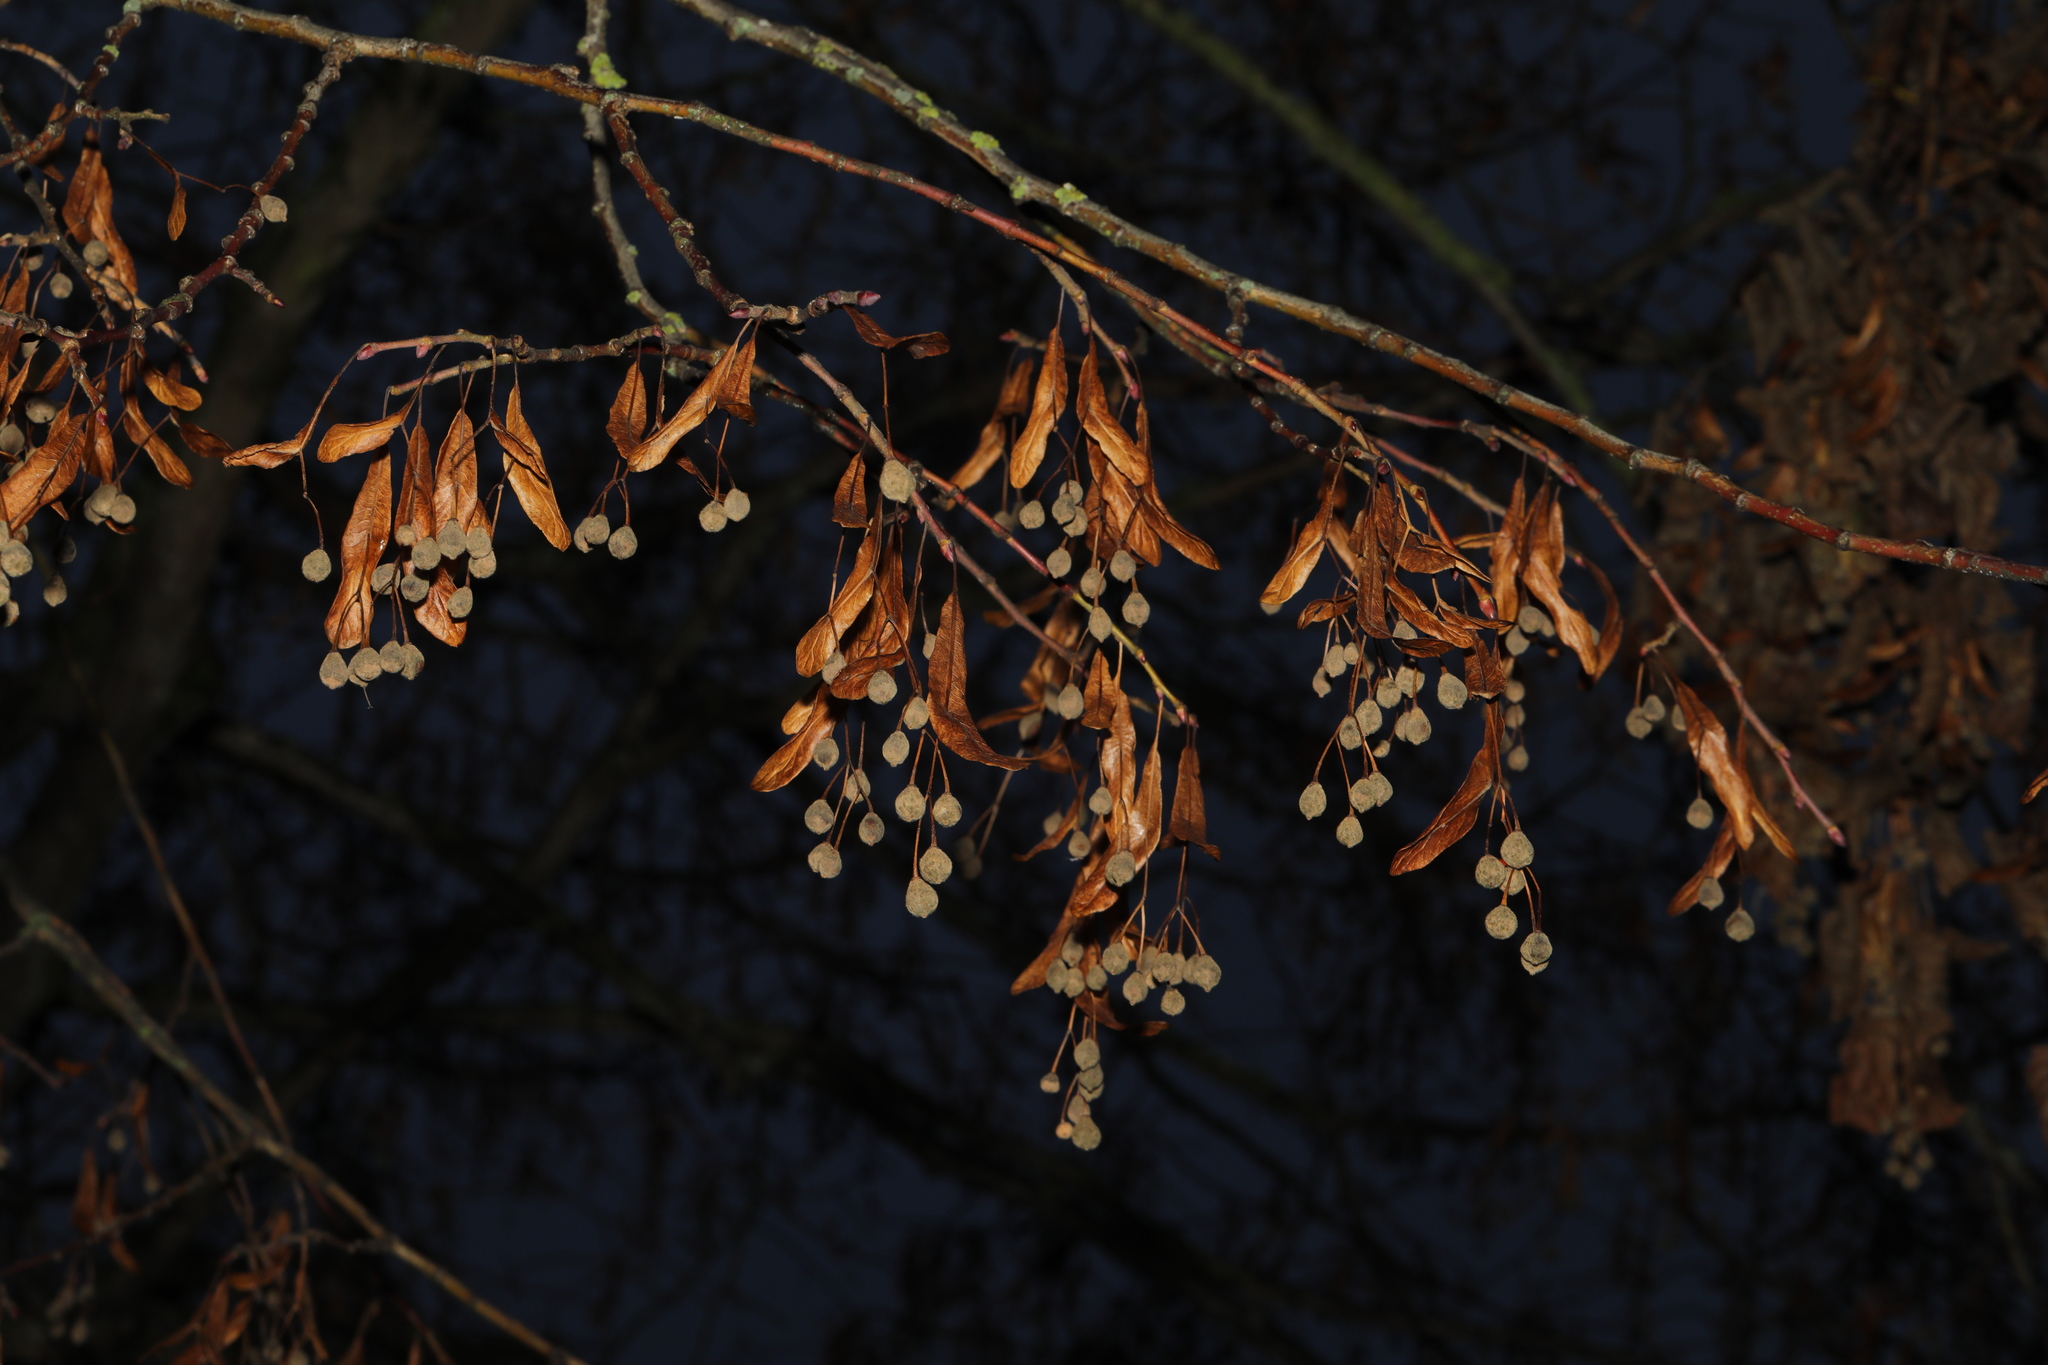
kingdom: Plantae
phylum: Tracheophyta
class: Magnoliopsida
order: Malvales
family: Malvaceae
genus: Tilia
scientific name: Tilia europaea
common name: European linden
